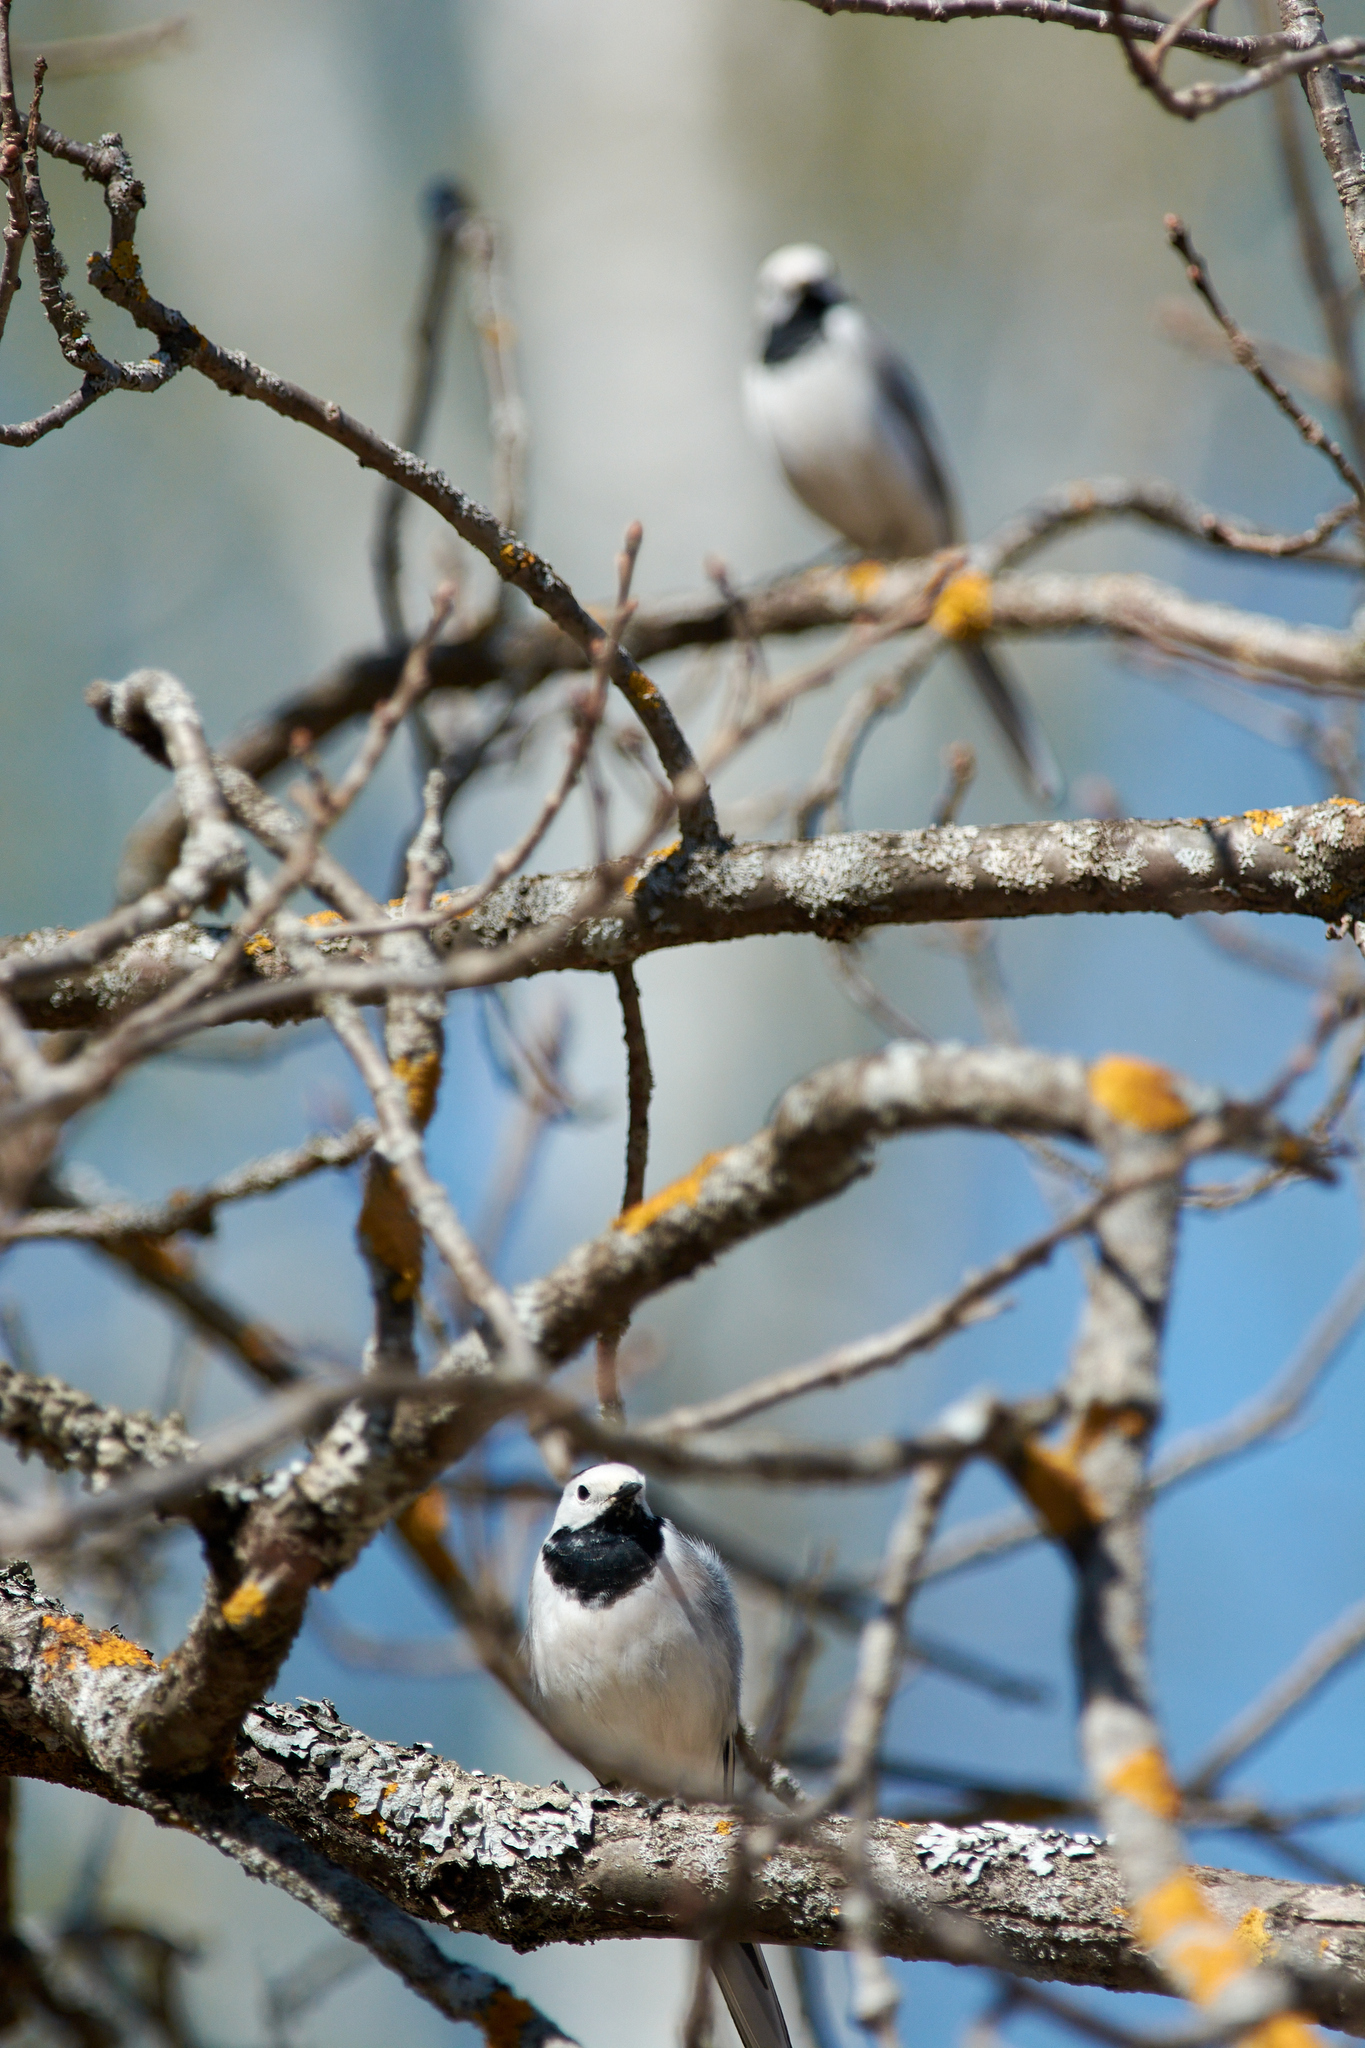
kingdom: Animalia
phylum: Chordata
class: Aves
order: Passeriformes
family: Motacillidae
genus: Motacilla
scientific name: Motacilla alba
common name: White wagtail
